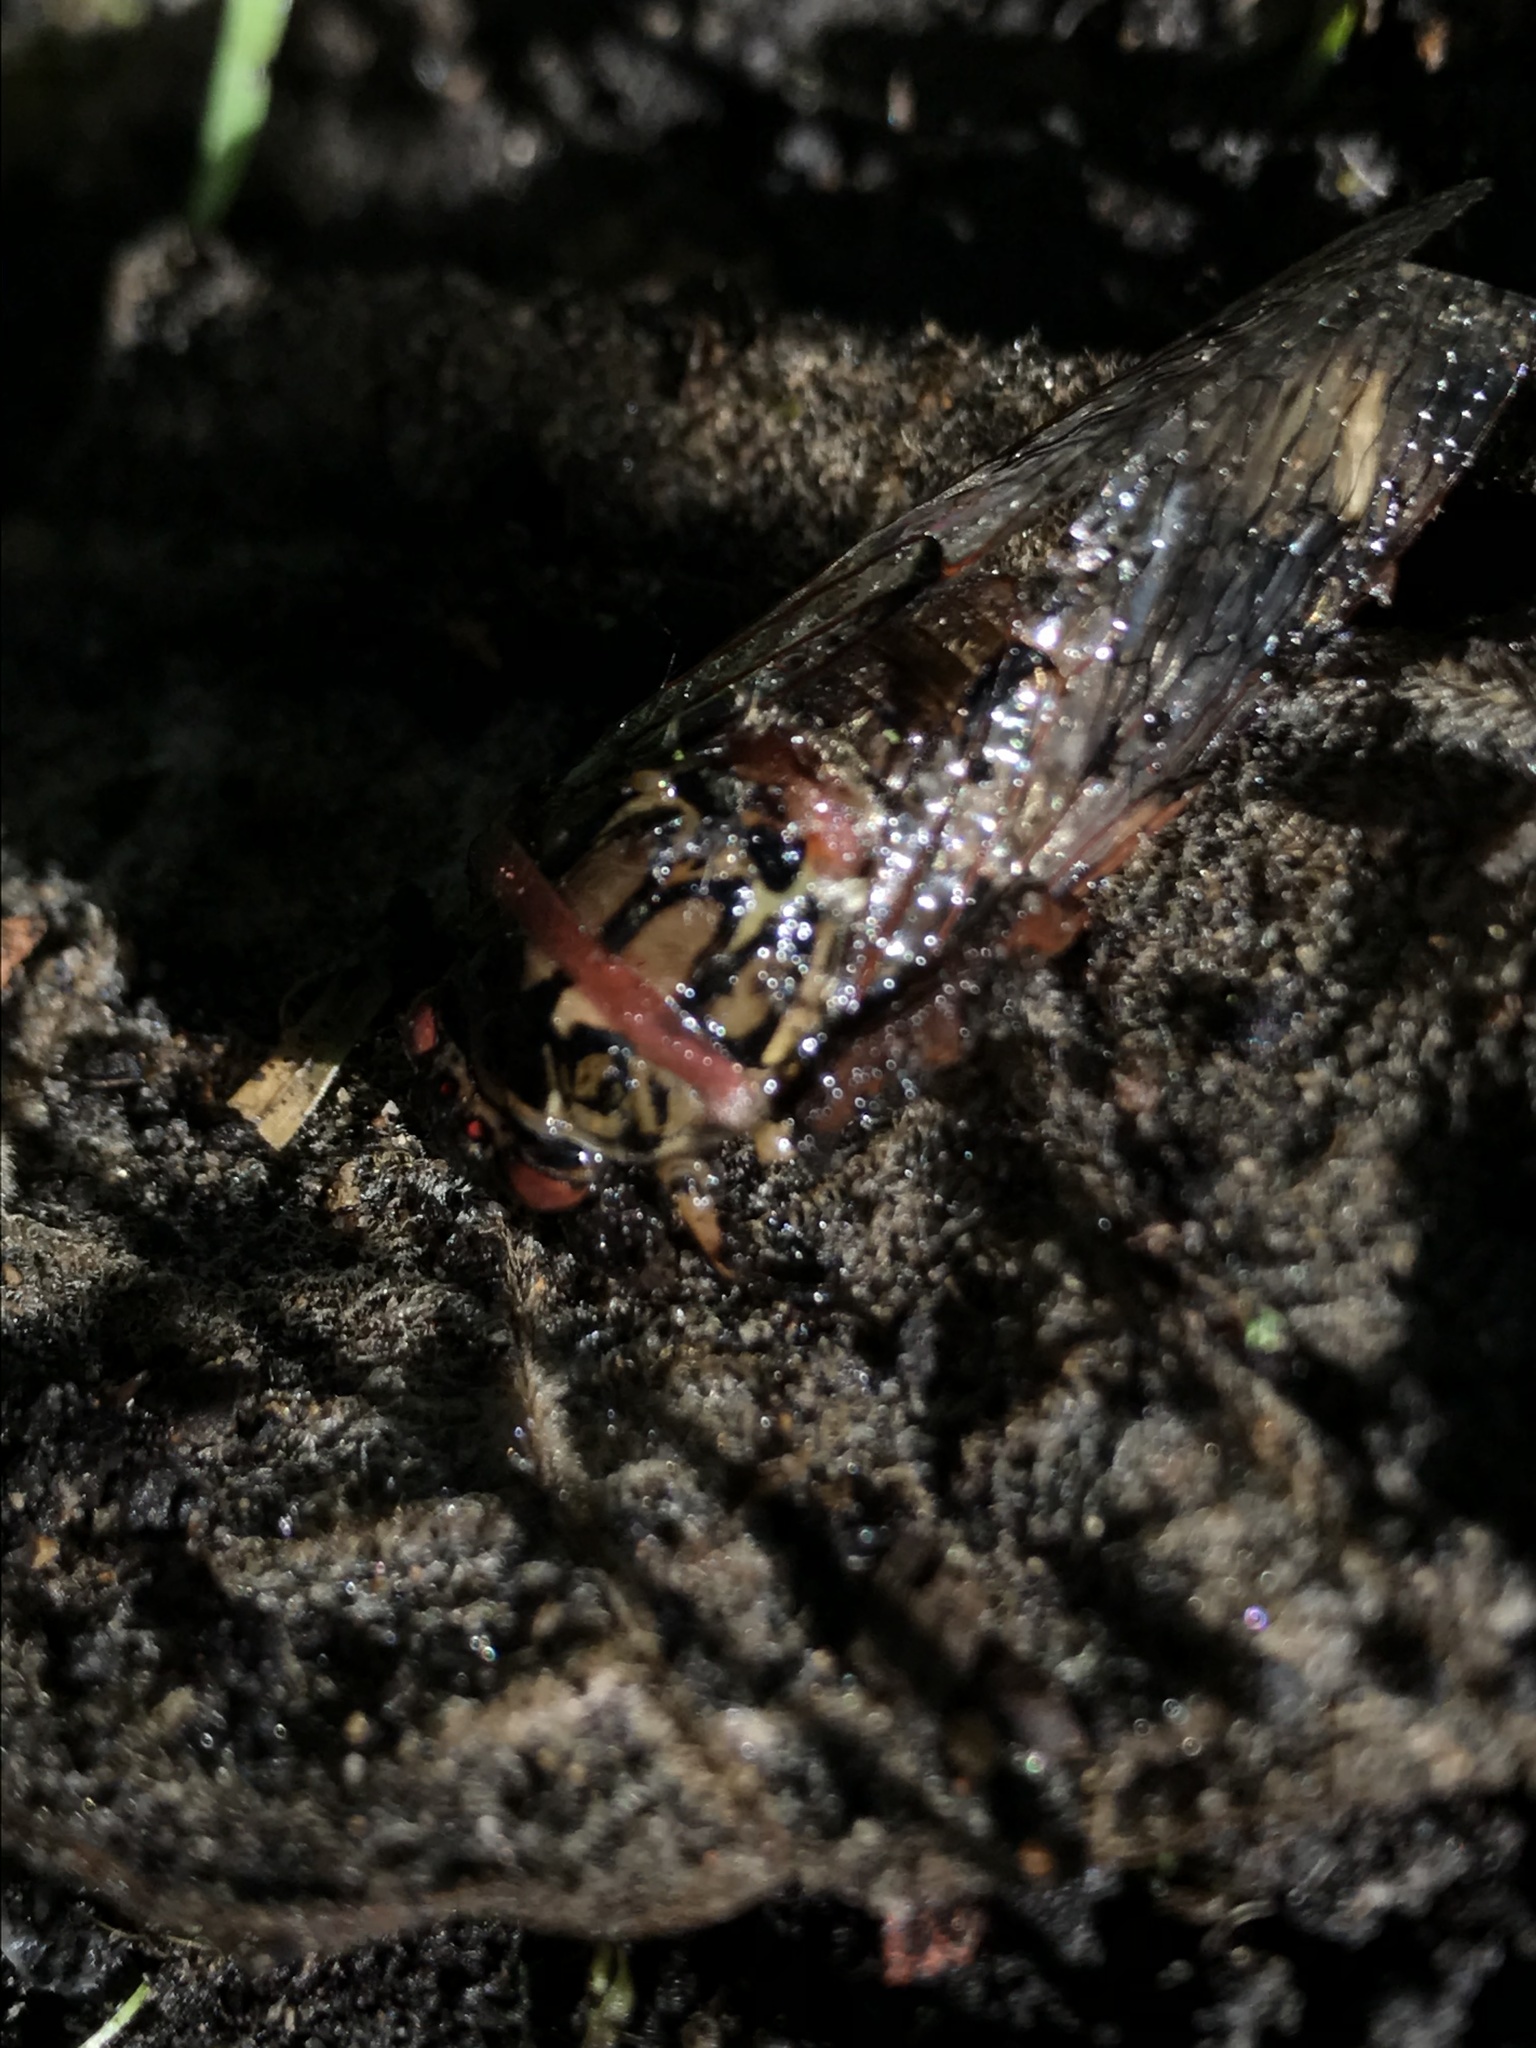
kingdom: Animalia
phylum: Arthropoda
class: Insecta
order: Hemiptera
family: Cicadidae
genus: Carineta
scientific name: Carineta trivittata
